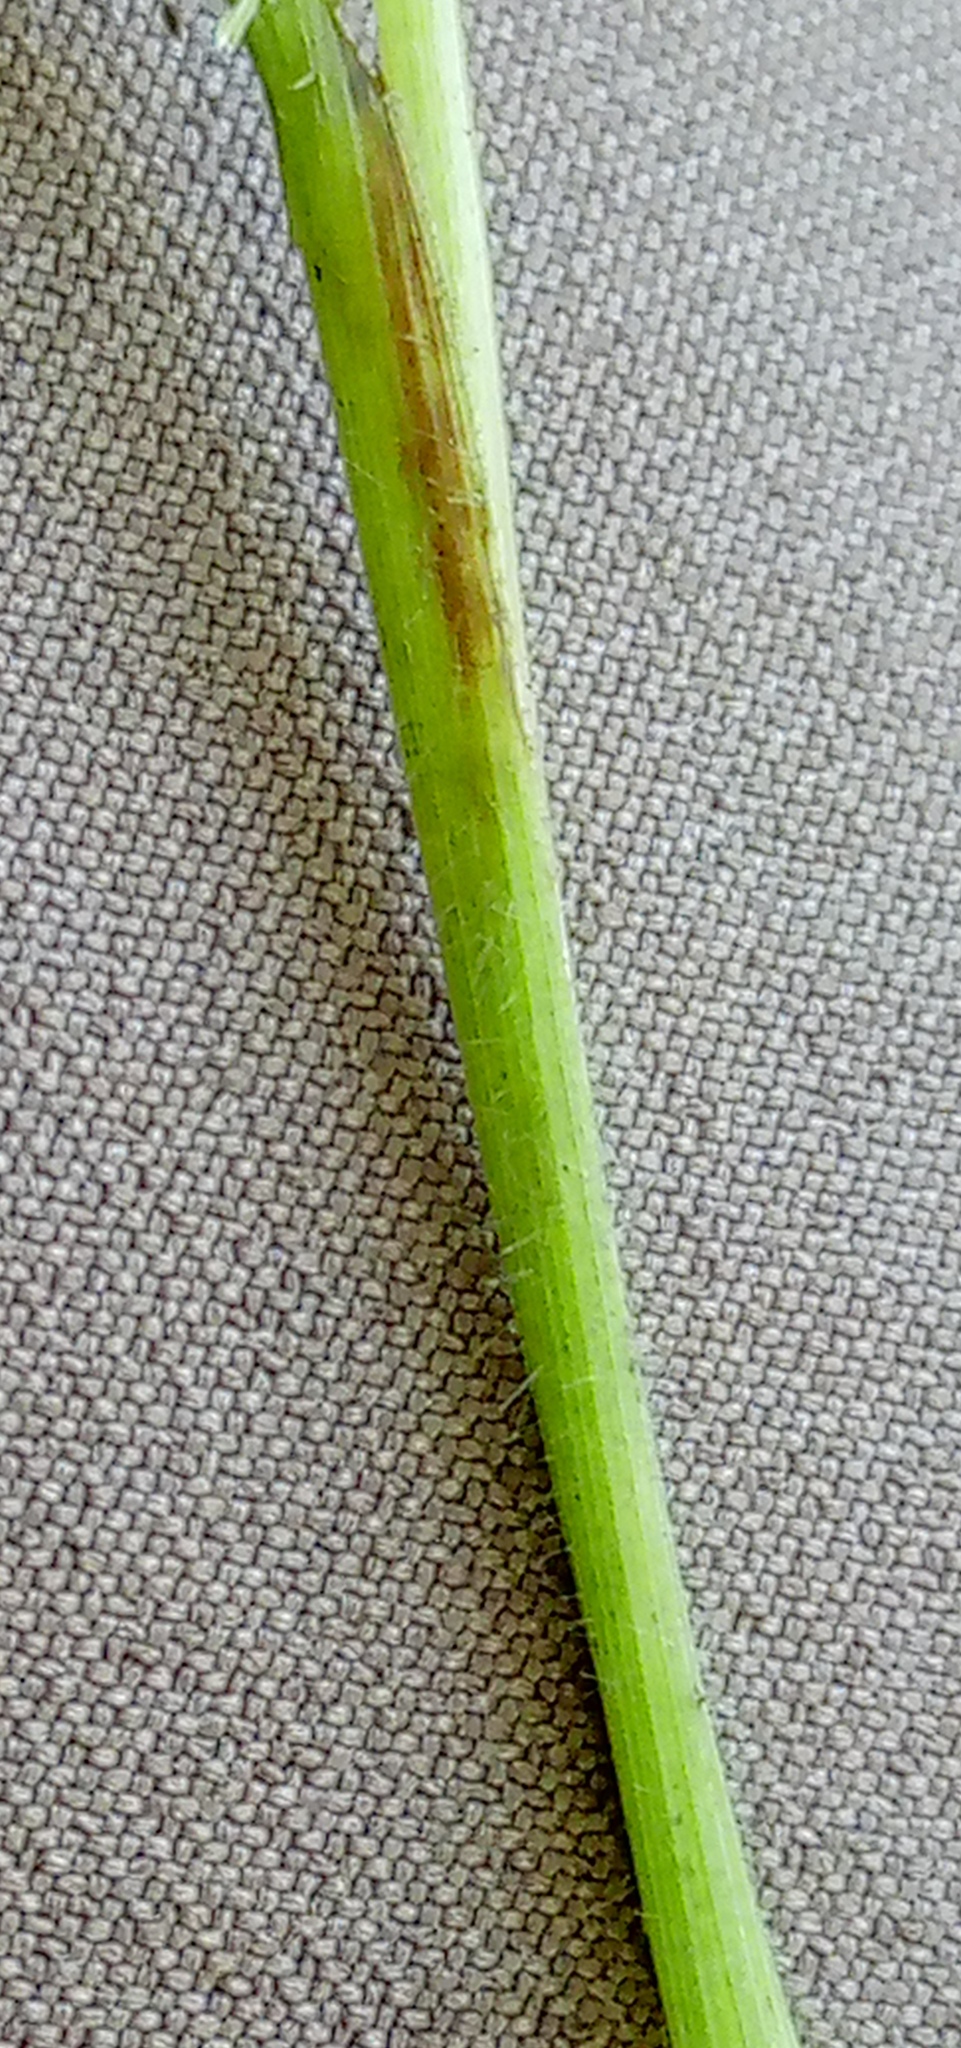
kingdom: Plantae
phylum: Tracheophyta
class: Liliopsida
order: Poales
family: Poaceae
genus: Brachypodium
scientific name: Brachypodium sylvaticum
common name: False-brome
